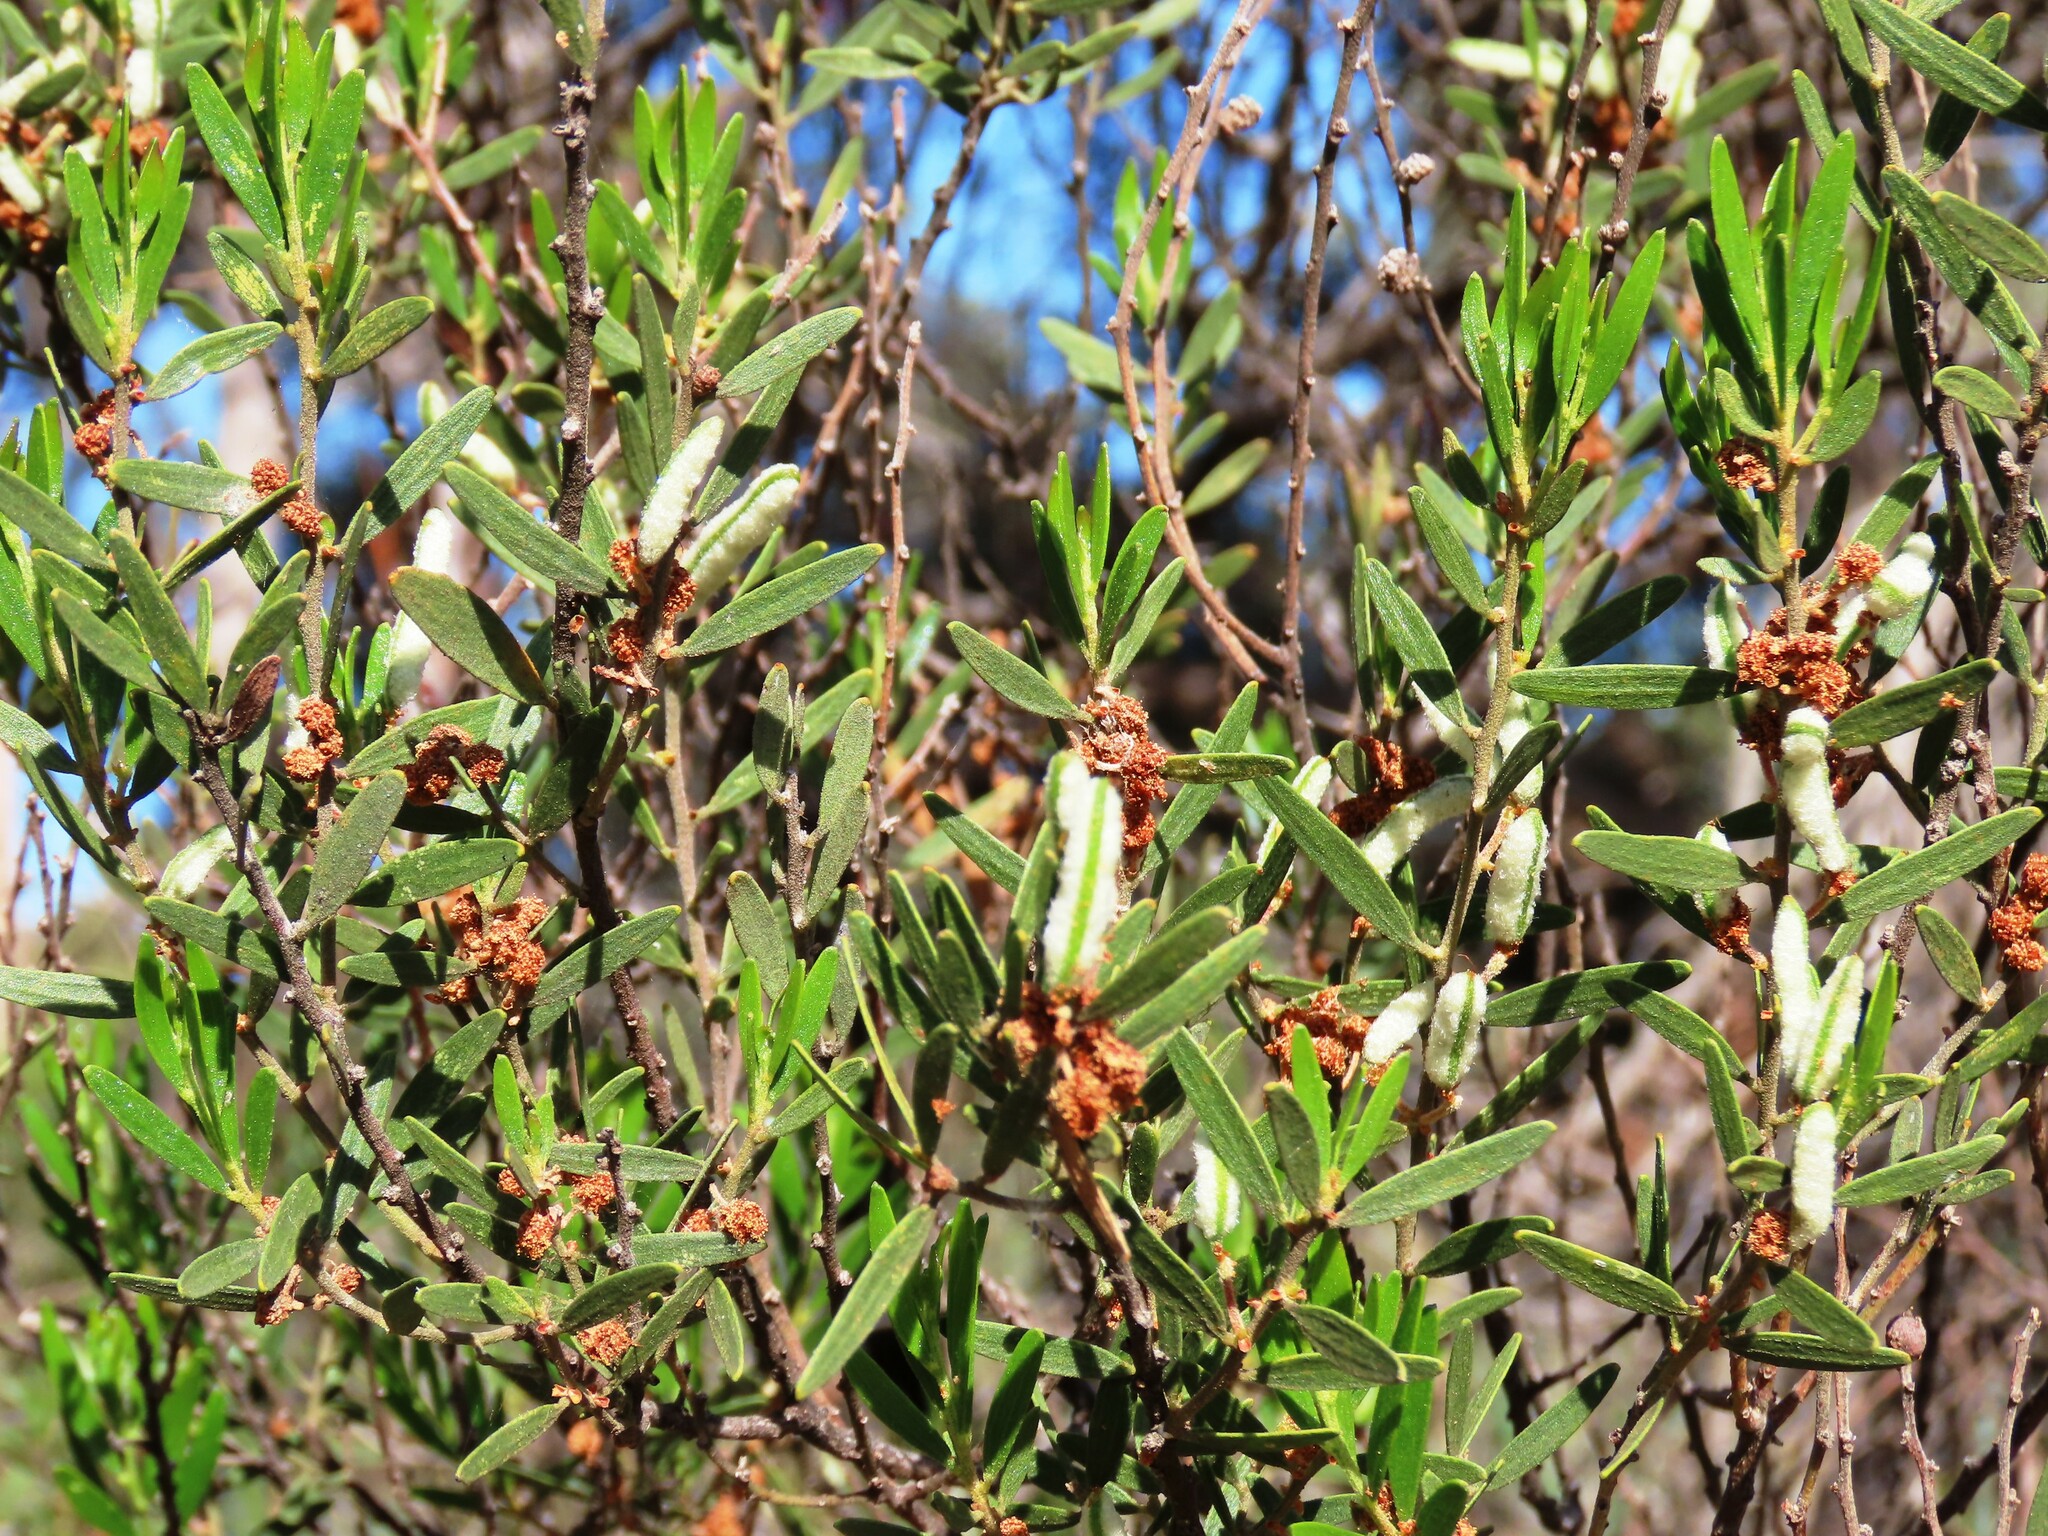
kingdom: Plantae
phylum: Tracheophyta
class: Magnoliopsida
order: Fabales
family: Fabaceae
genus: Acacia
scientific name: Acacia aspera
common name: Rough wattle
